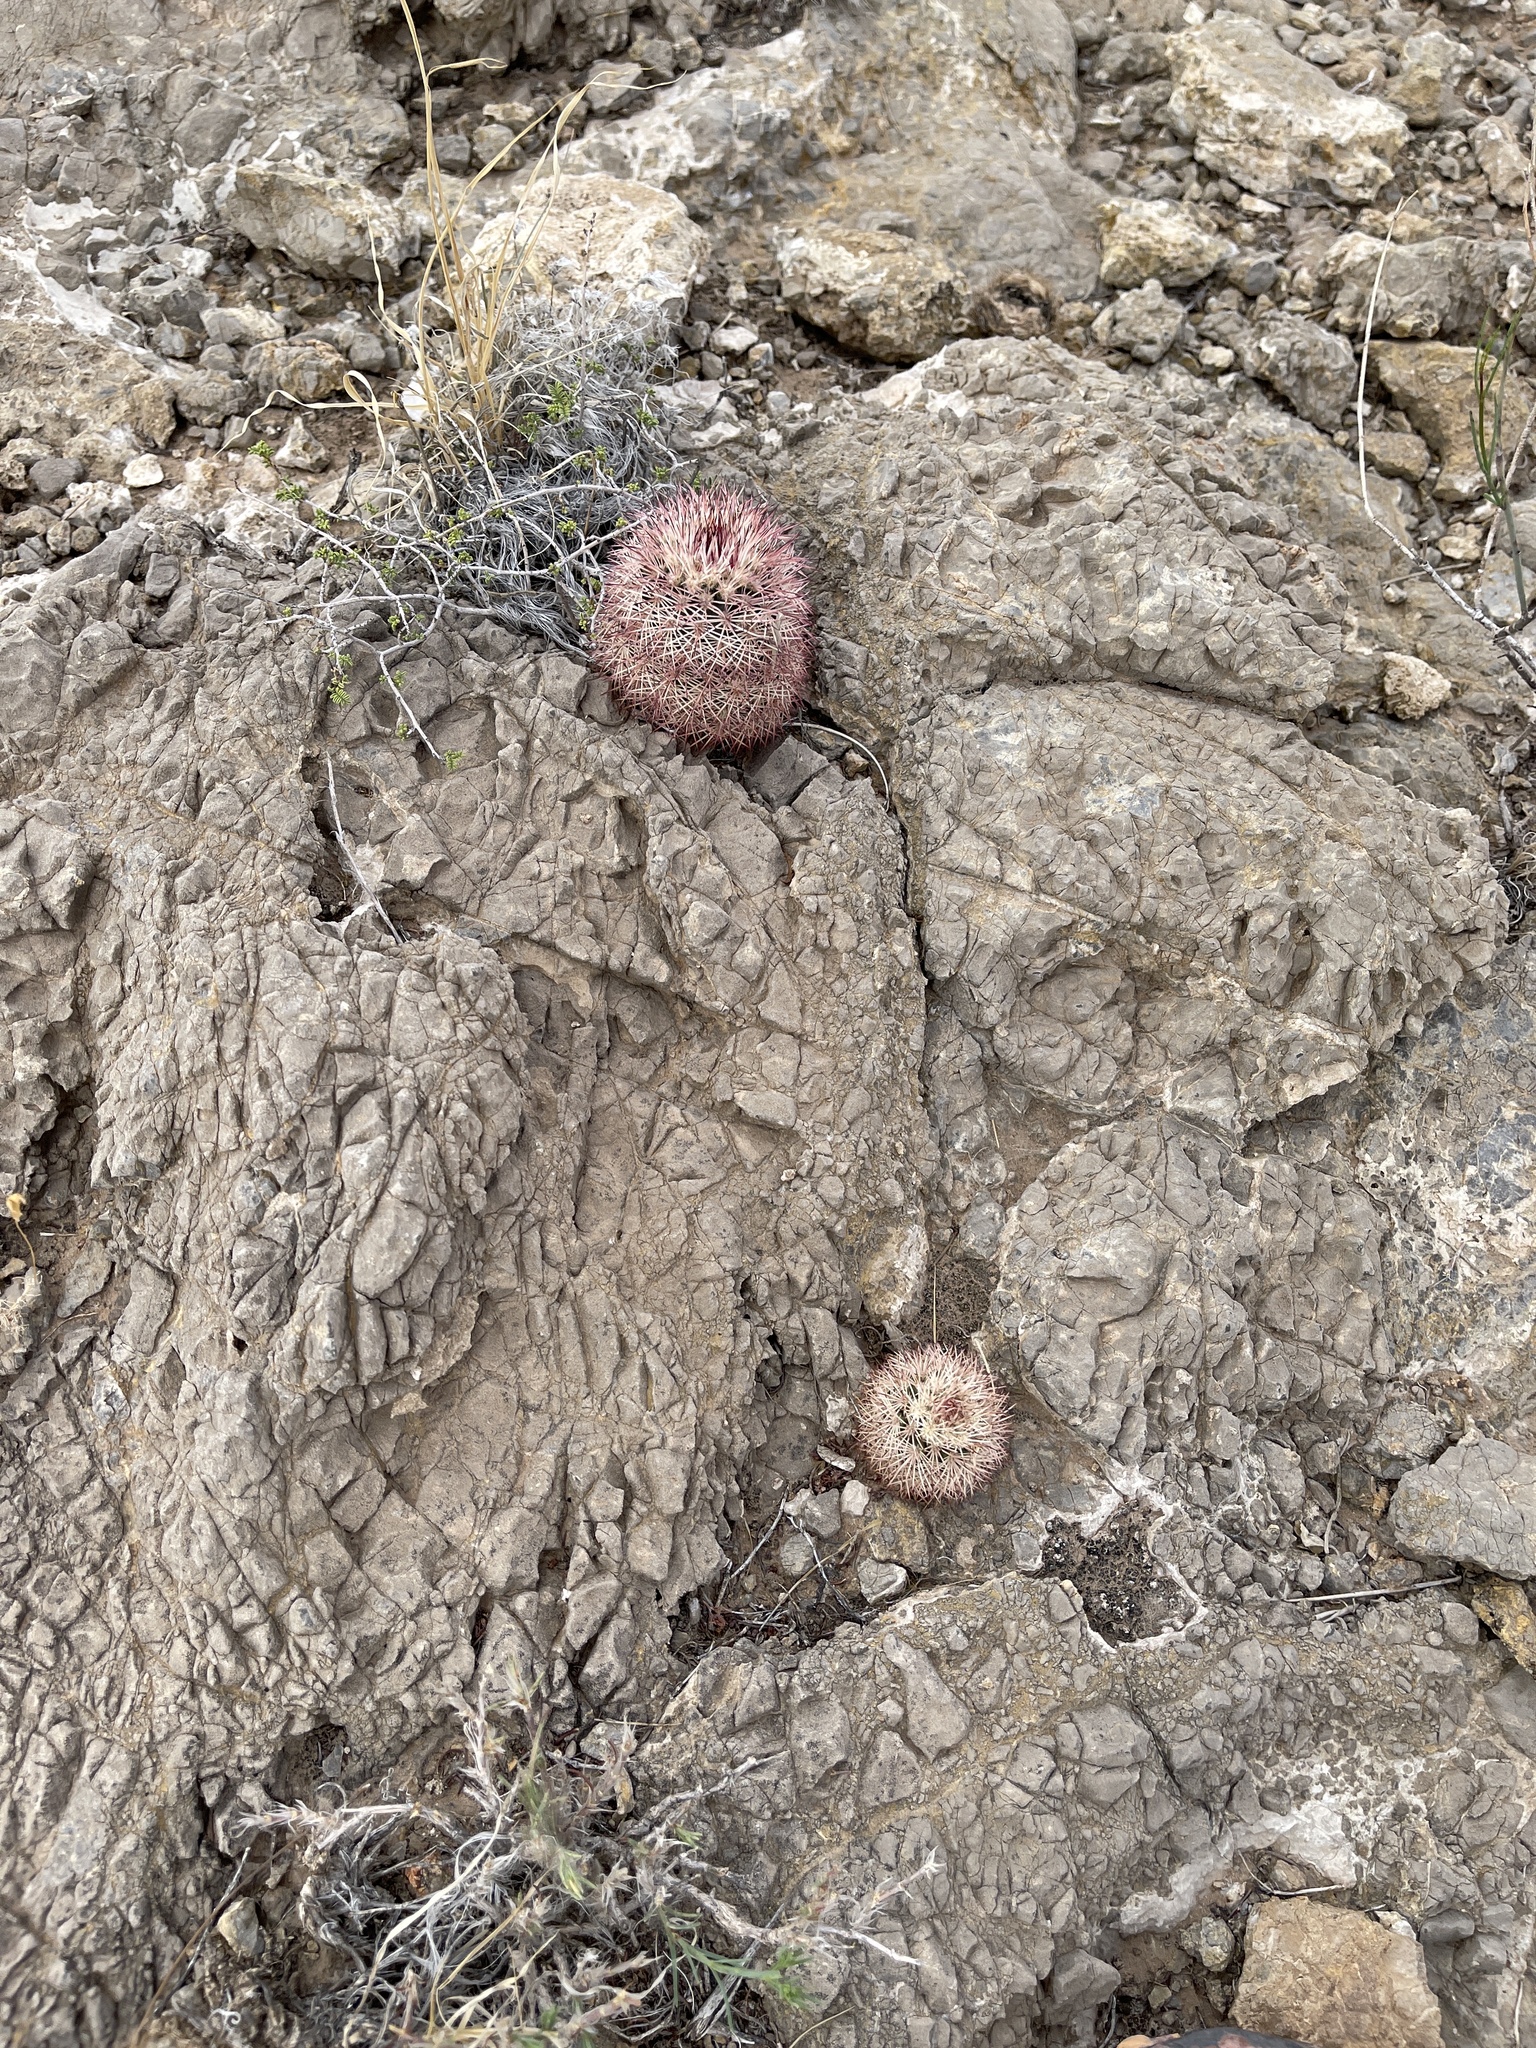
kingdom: Plantae
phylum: Tracheophyta
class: Magnoliopsida
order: Caryophyllales
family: Cactaceae
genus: Echinocereus
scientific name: Echinocereus dasyacanthus
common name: Spiny hedgehog cactus
